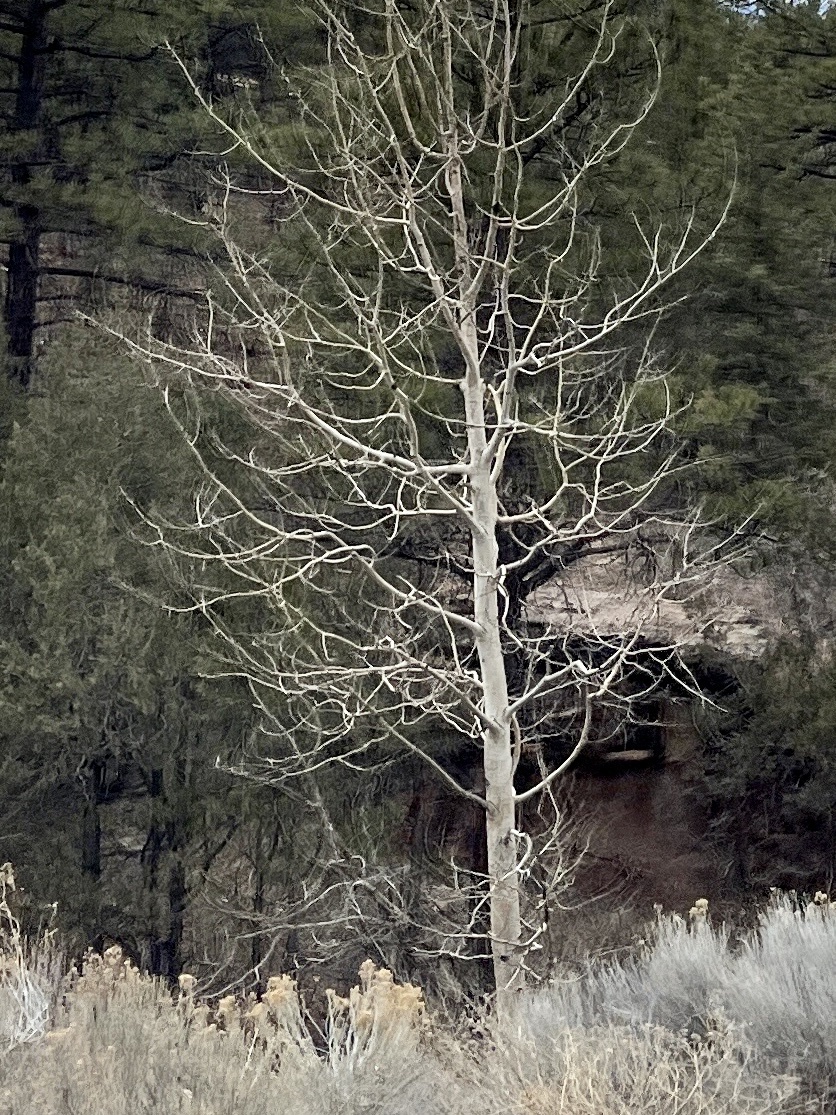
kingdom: Plantae
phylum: Tracheophyta
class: Magnoliopsida
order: Malpighiales
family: Salicaceae
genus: Populus
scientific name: Populus tremuloides
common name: Quaking aspen
